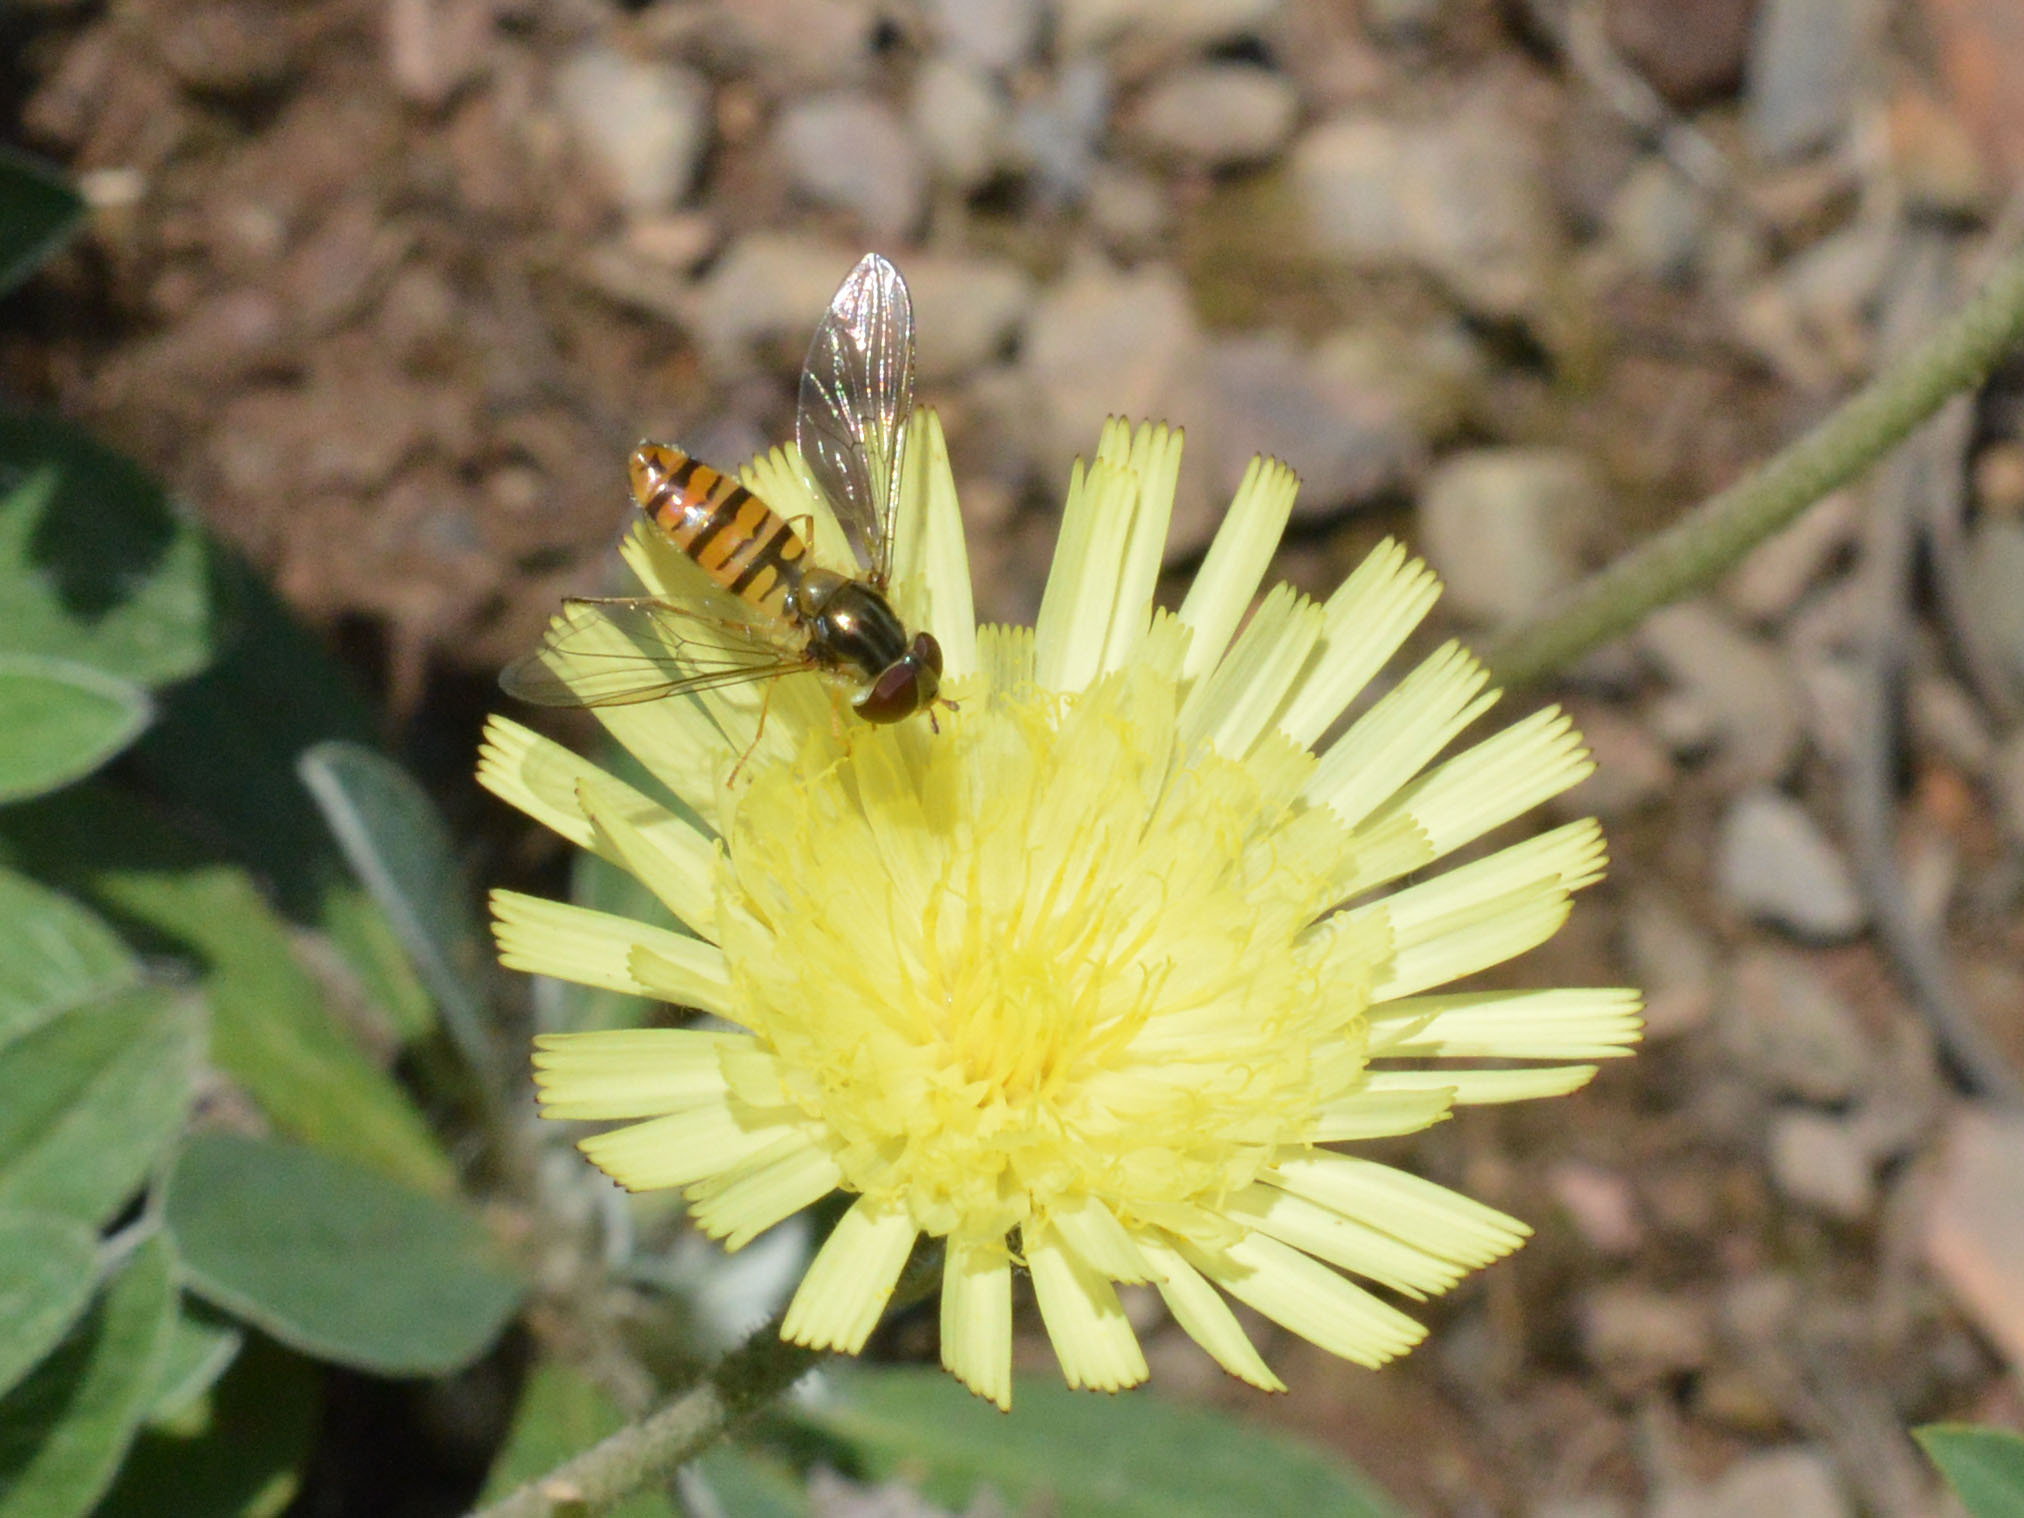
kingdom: Animalia
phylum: Arthropoda
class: Insecta
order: Diptera
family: Syrphidae
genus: Episyrphus
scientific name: Episyrphus balteatus
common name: Marmalade hoverfly
